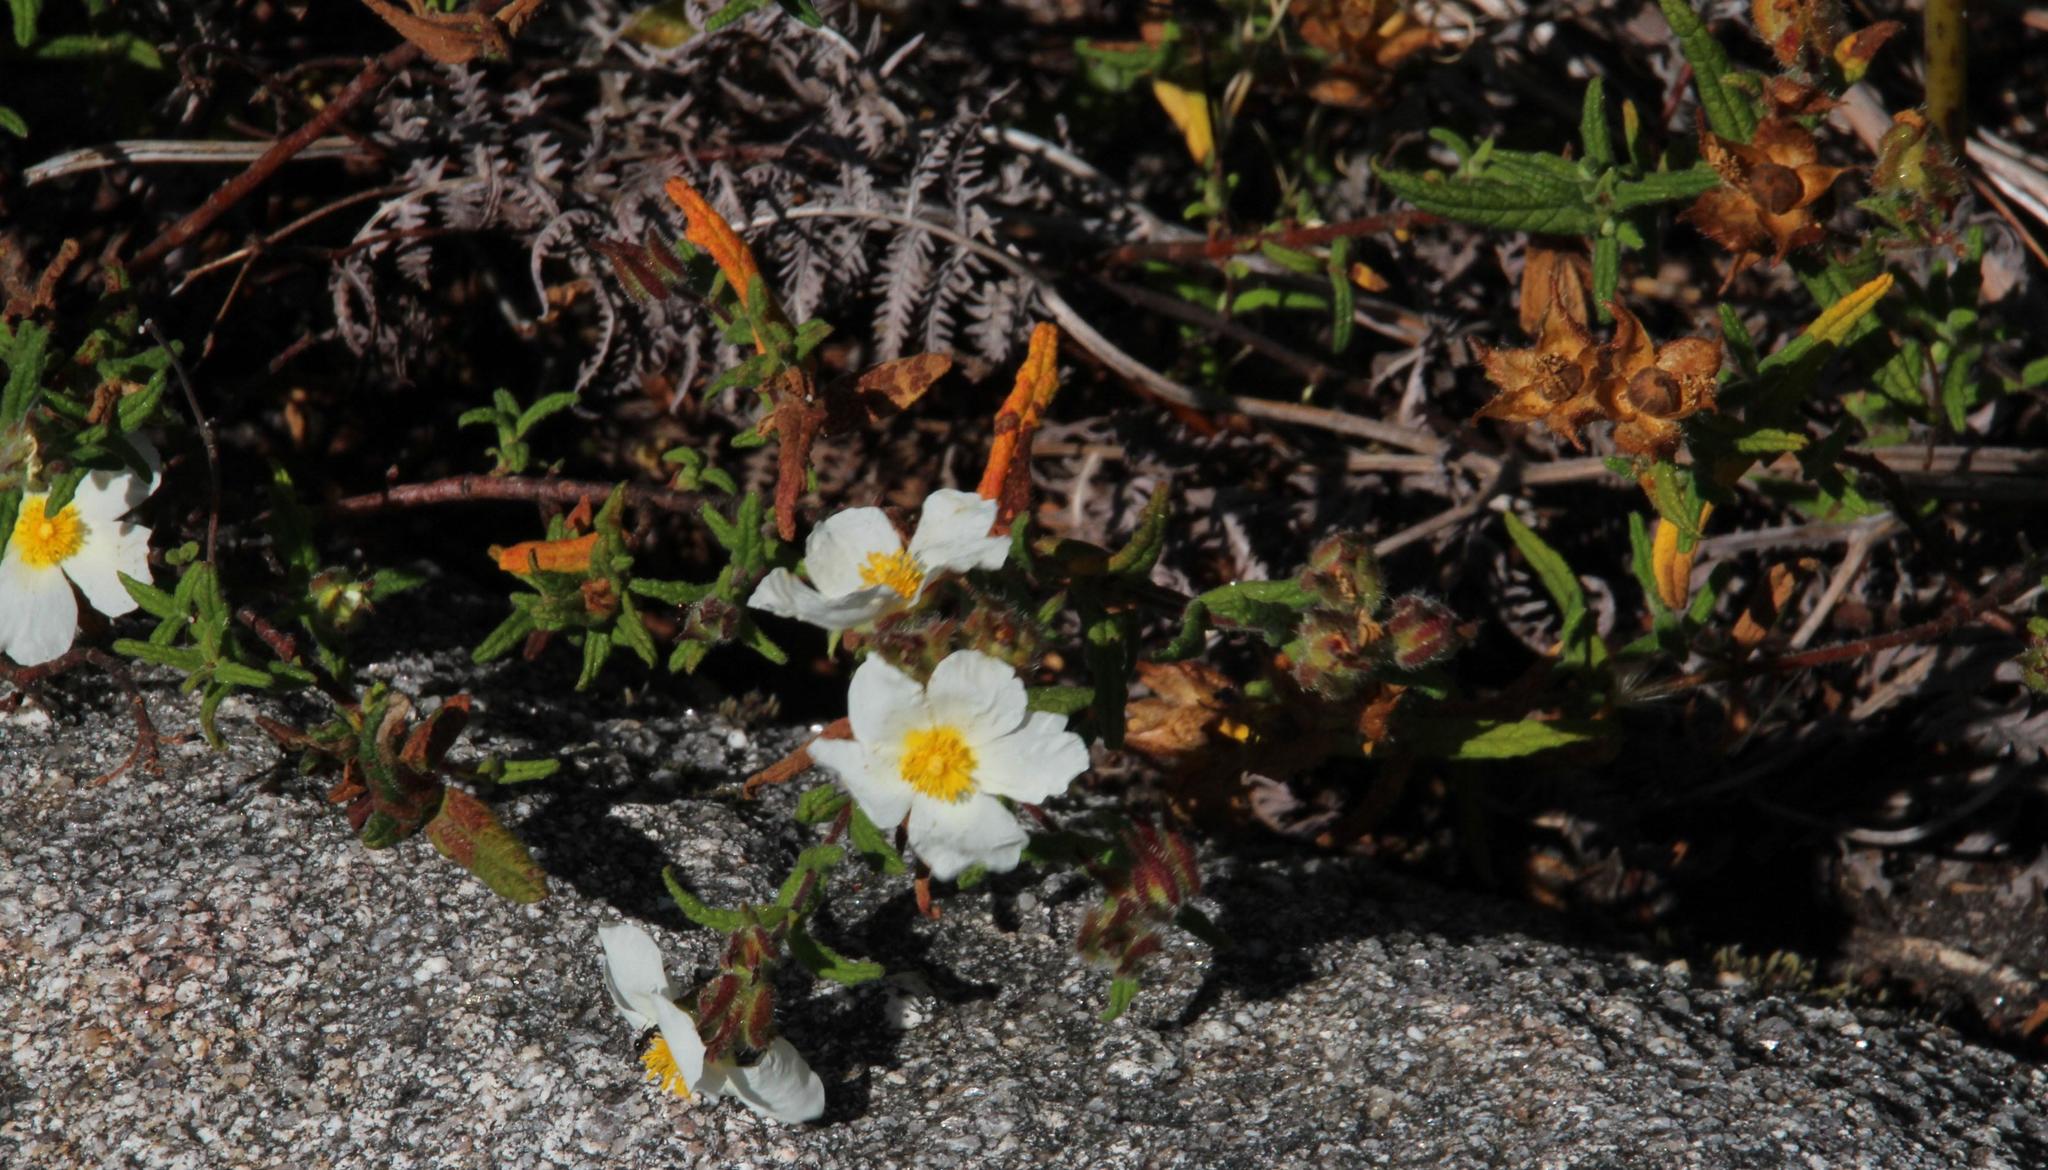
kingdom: Plantae
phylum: Tracheophyta
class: Magnoliopsida
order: Malvales
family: Cistaceae
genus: Cistus
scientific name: Cistus inflatus
